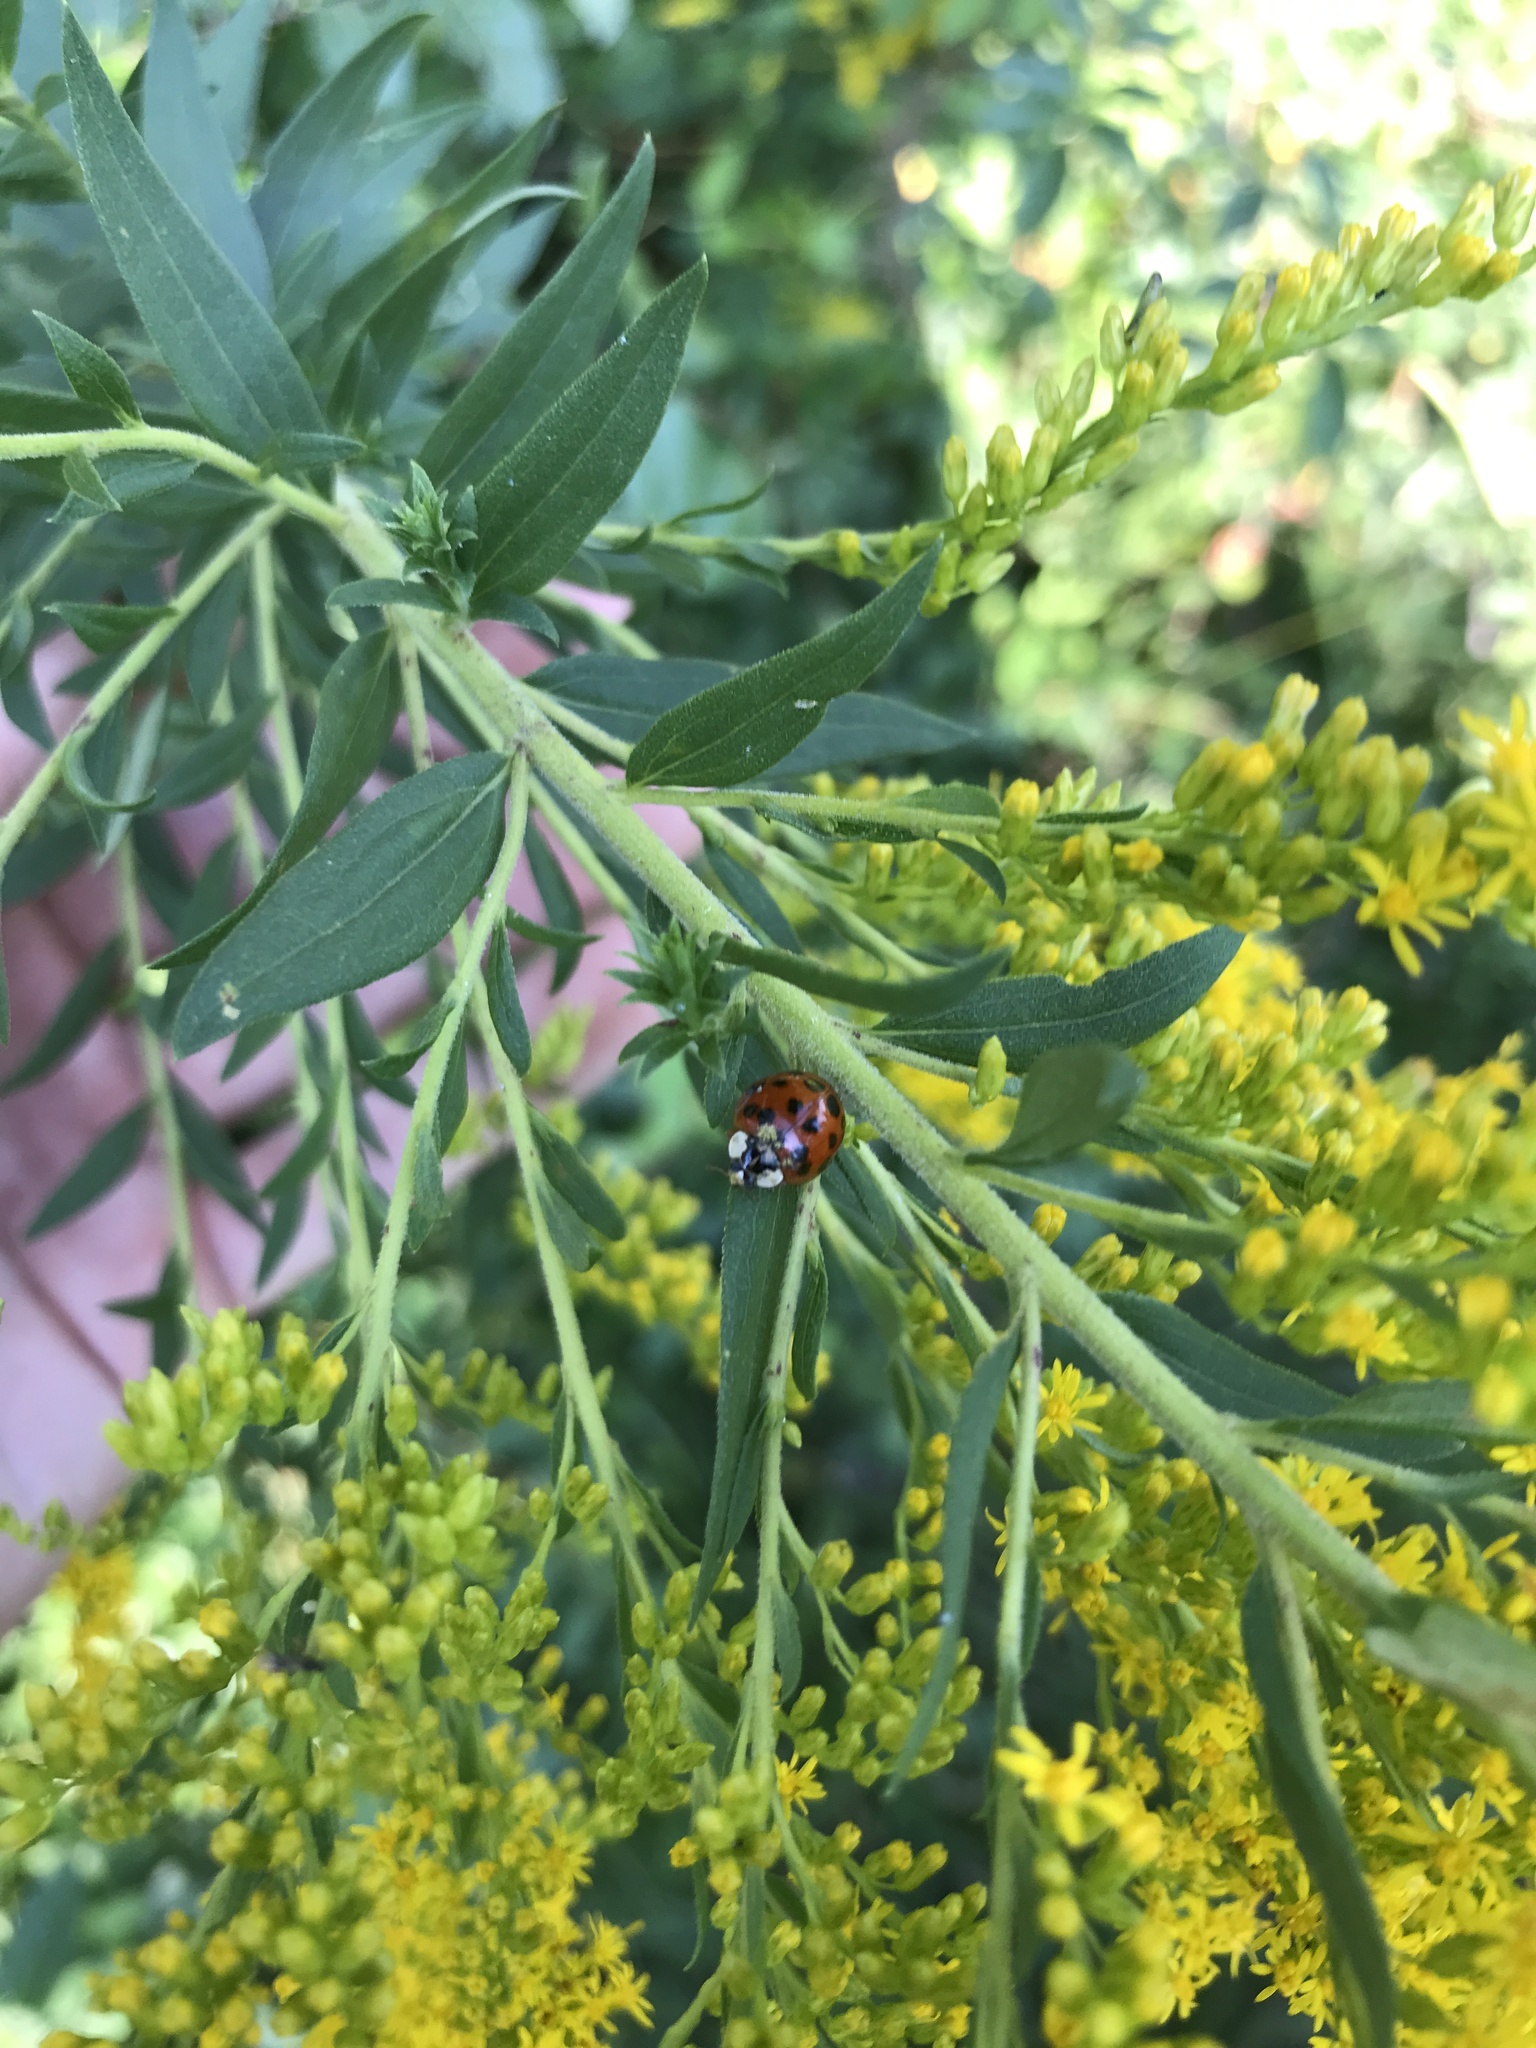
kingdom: Animalia
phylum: Arthropoda
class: Insecta
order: Coleoptera
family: Coccinellidae
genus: Harmonia
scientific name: Harmonia axyridis
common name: Harlequin ladybird
